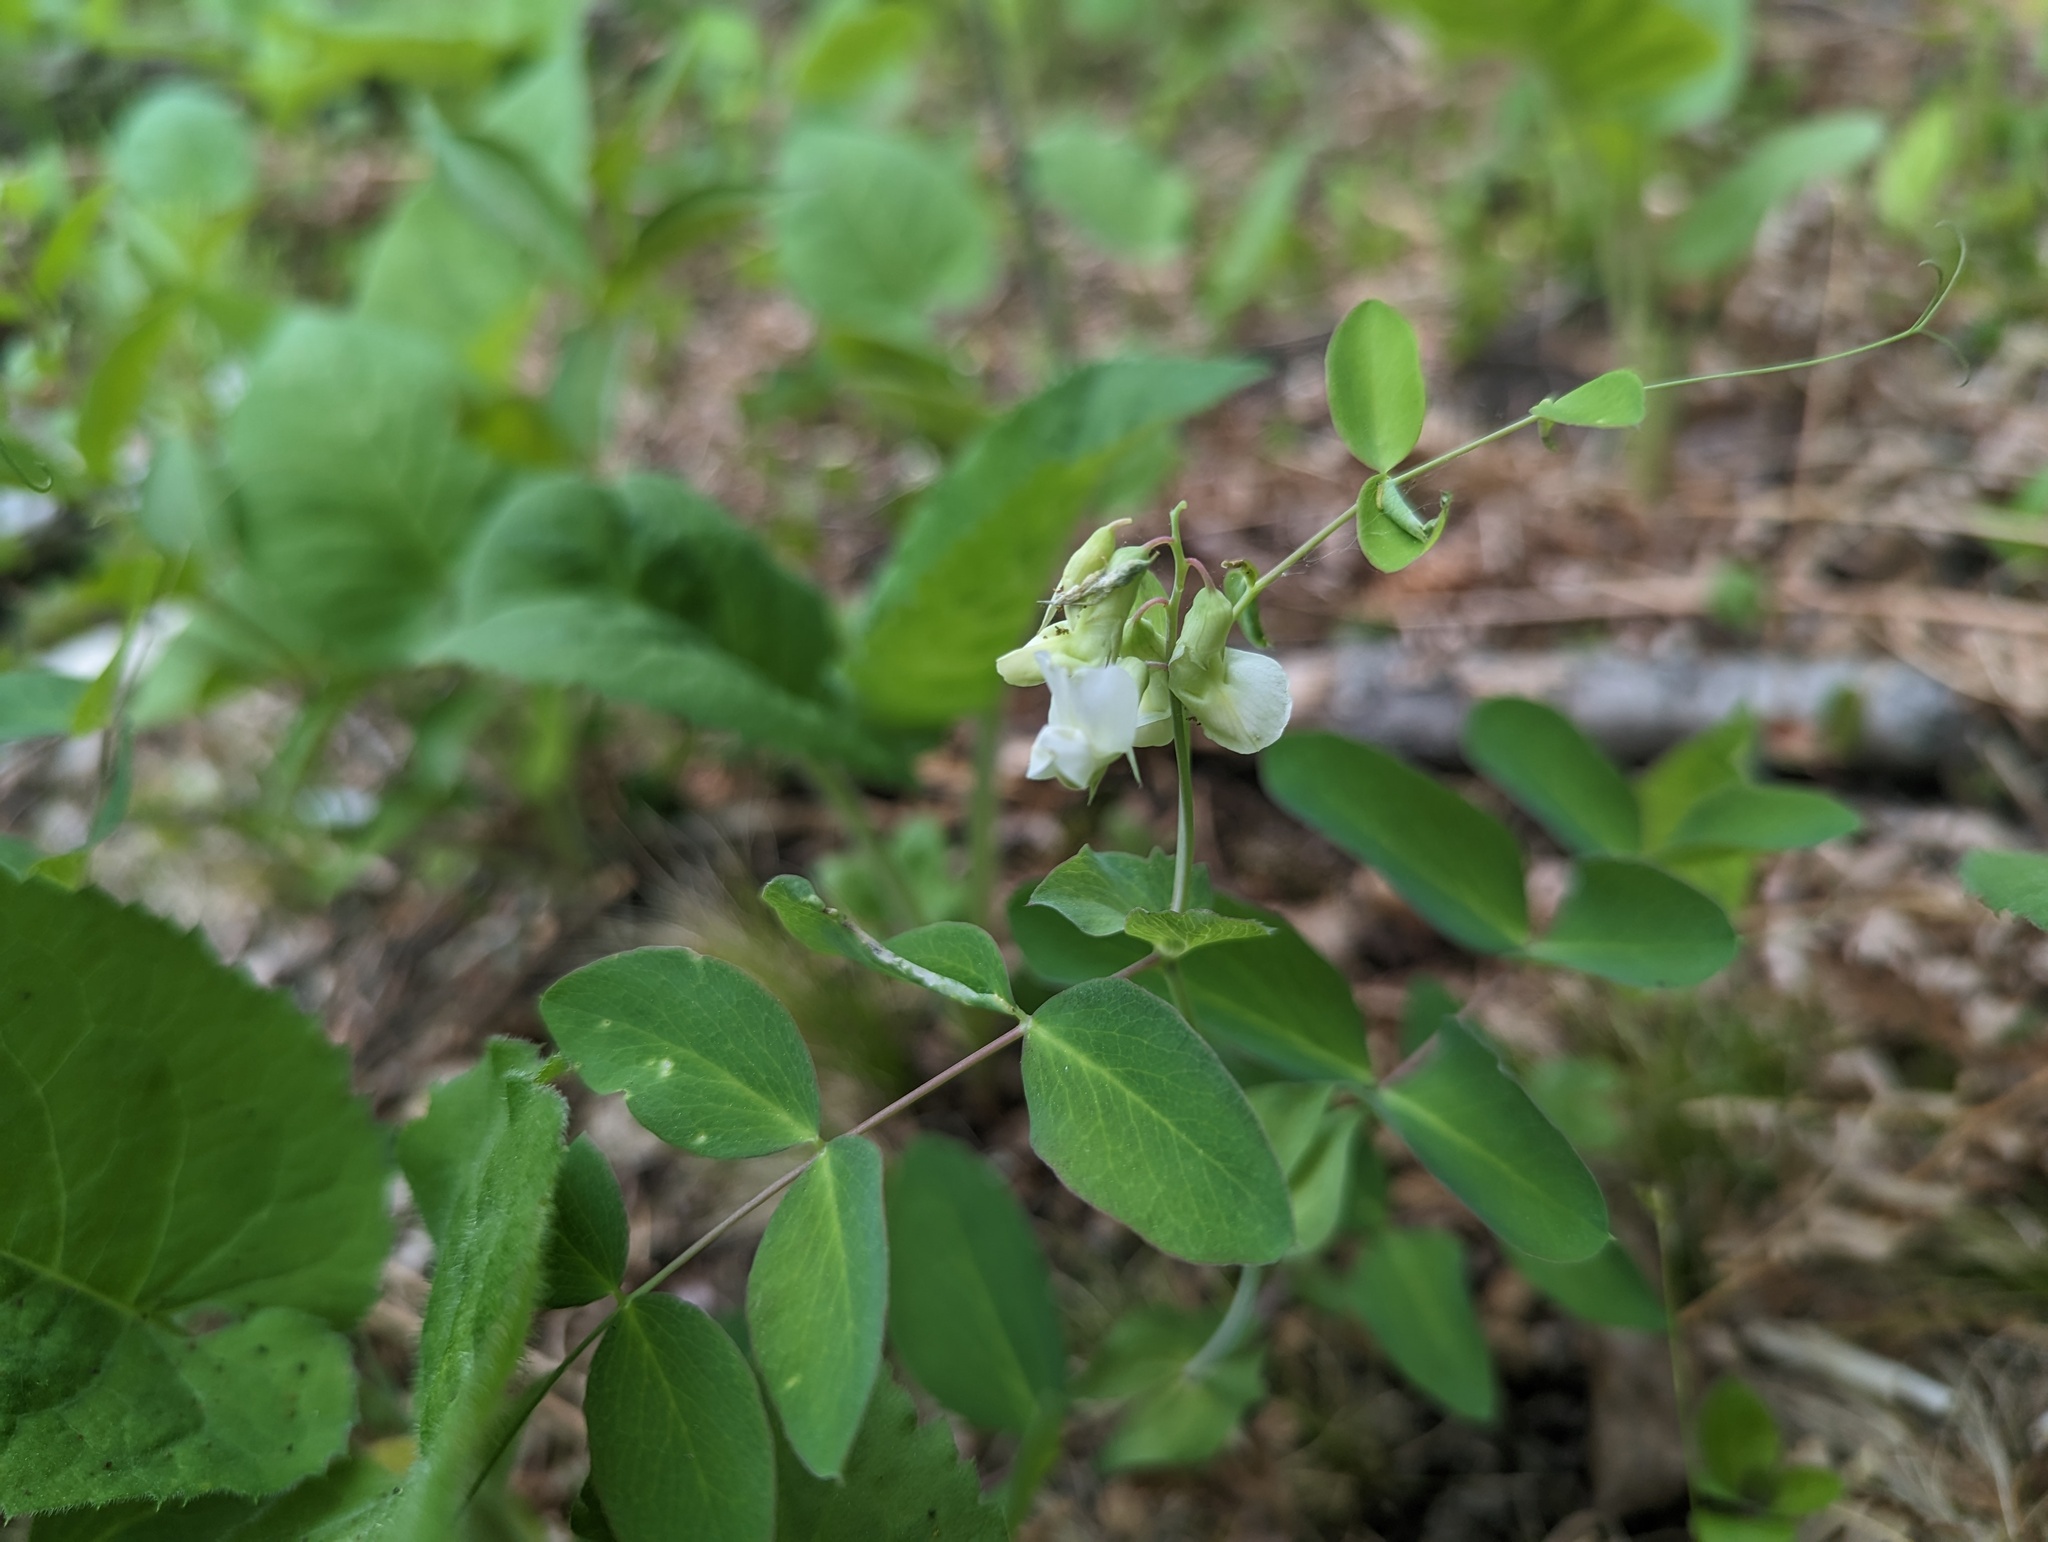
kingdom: Plantae
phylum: Tracheophyta
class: Magnoliopsida
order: Fabales
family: Fabaceae
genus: Lathyrus
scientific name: Lathyrus ochroleucus
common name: Pale vetchling
